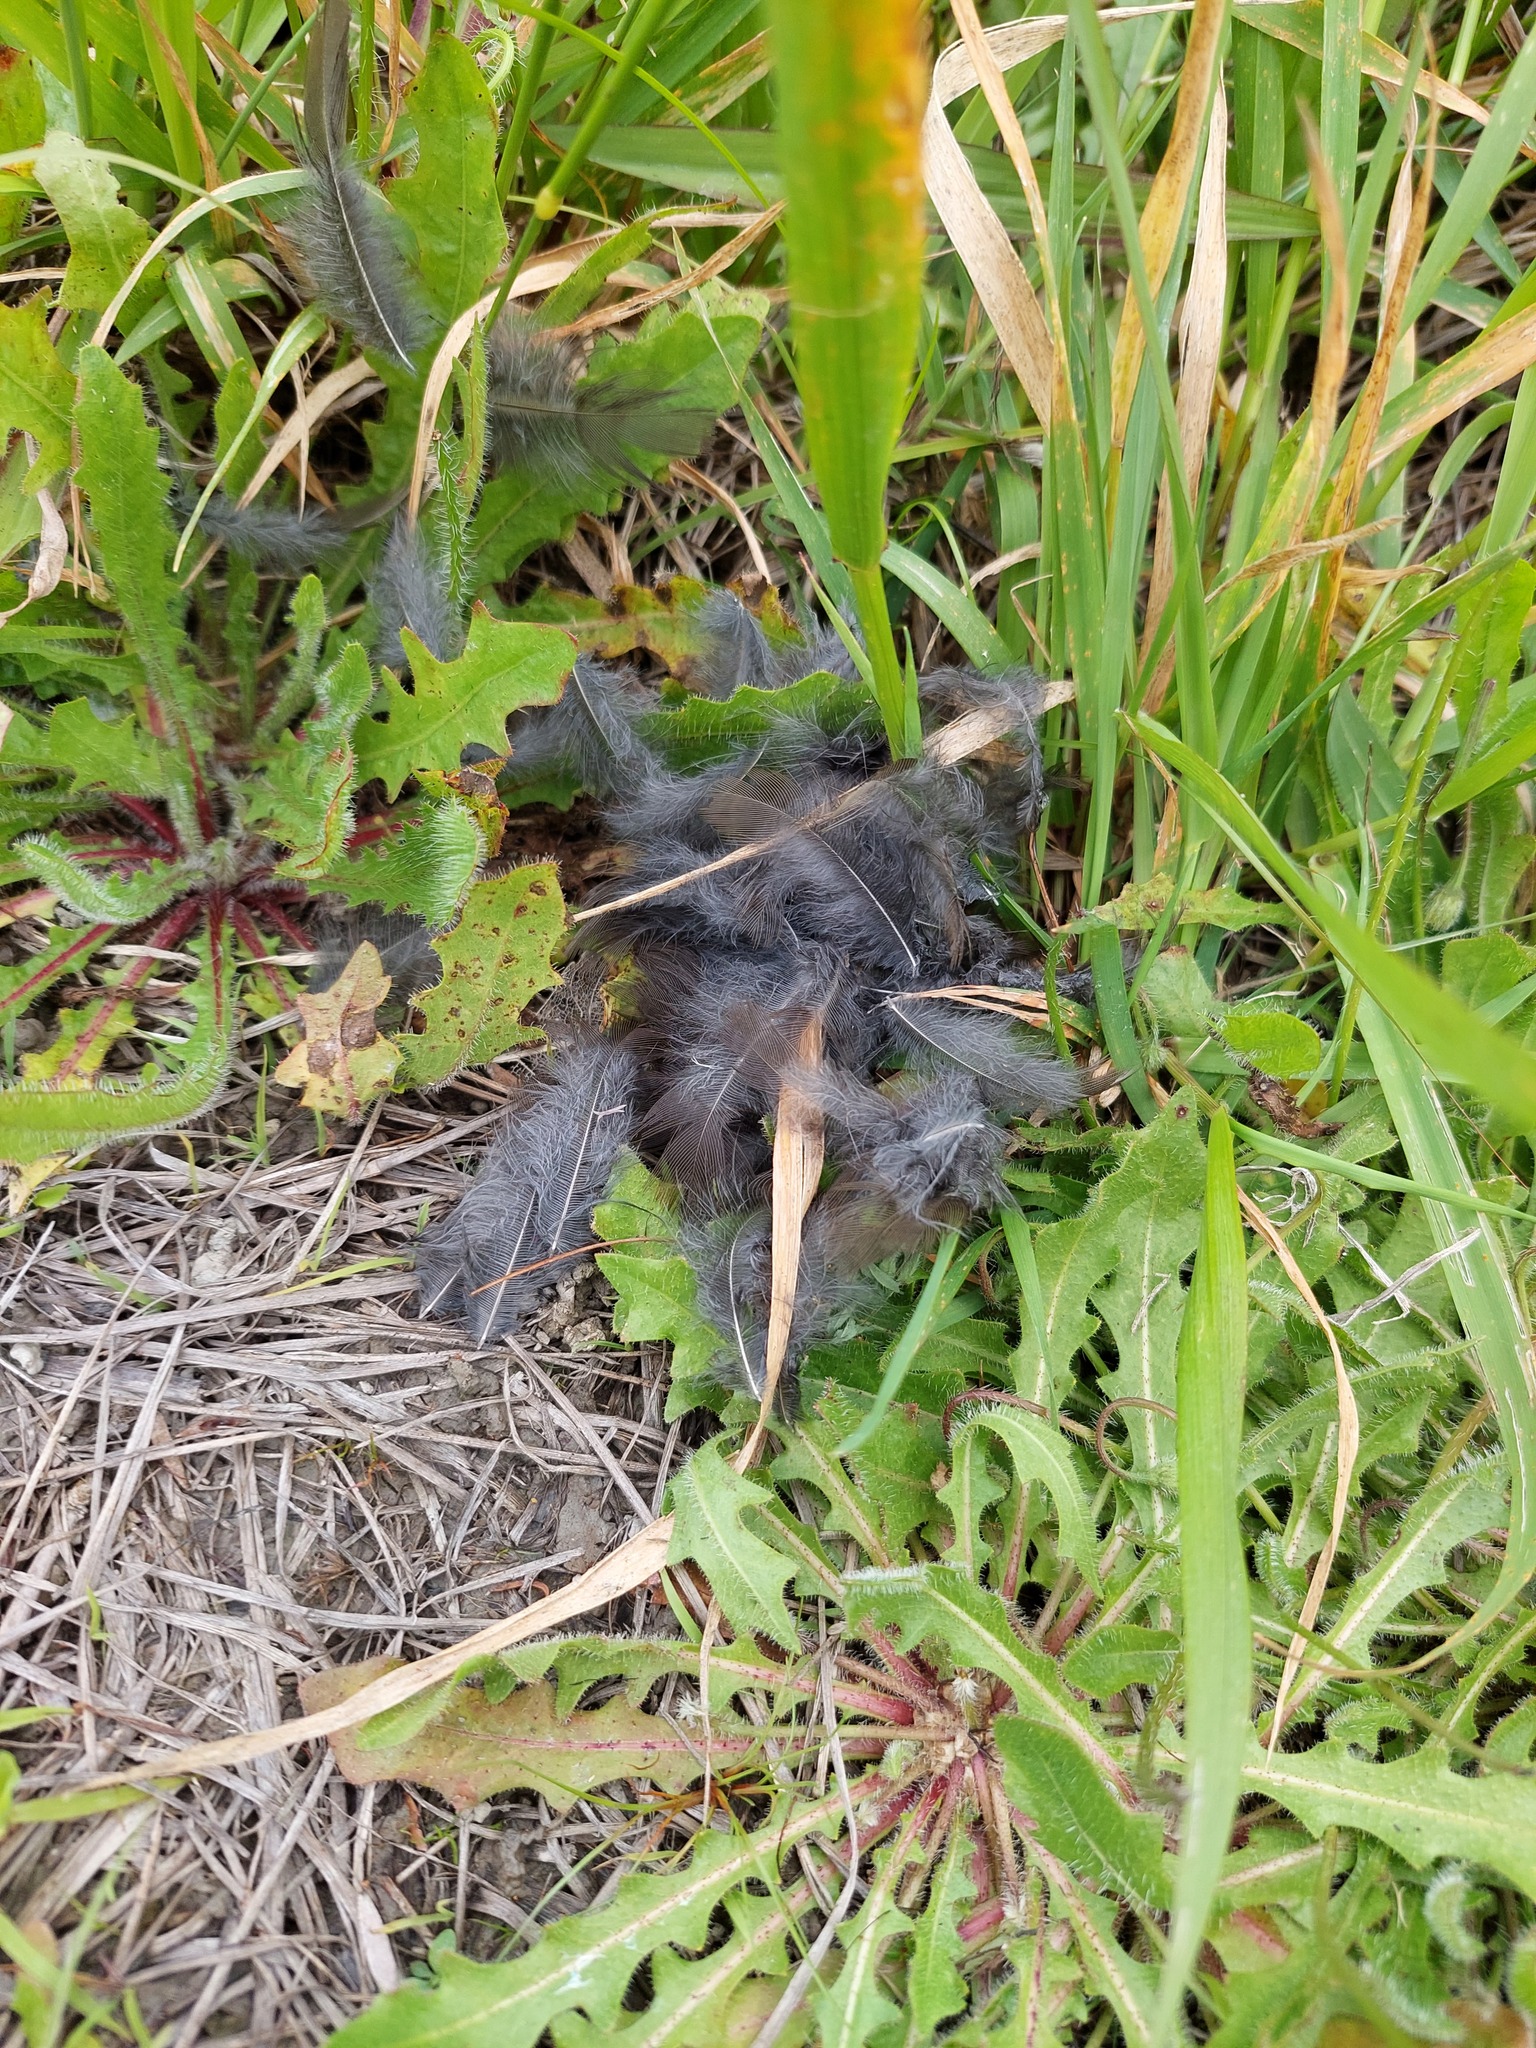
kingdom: Animalia
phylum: Chordata
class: Aves
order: Passeriformes
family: Turdidae
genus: Turdus
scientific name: Turdus merula
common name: Common blackbird
